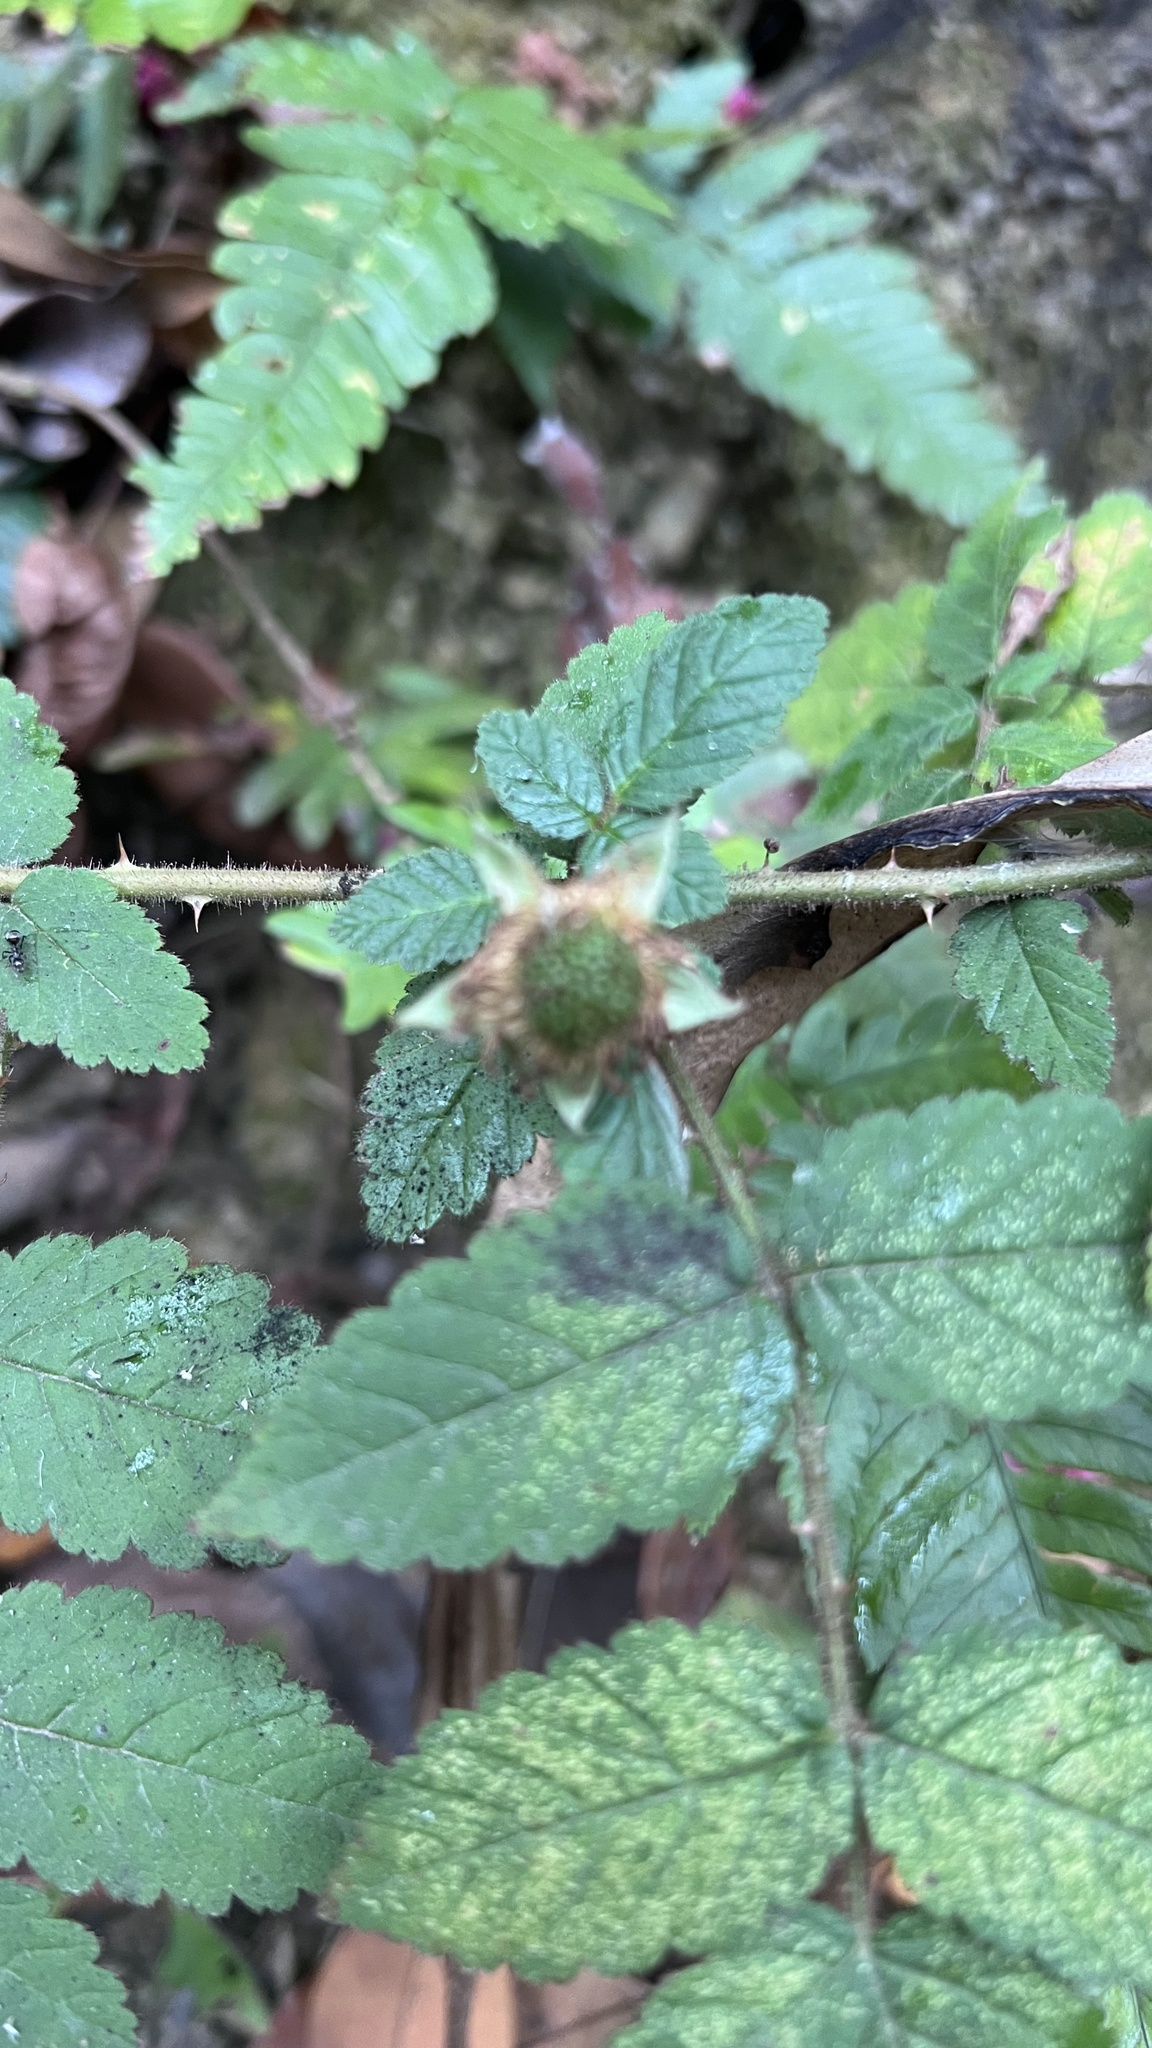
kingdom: Plantae
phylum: Tracheophyta
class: Magnoliopsida
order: Rosales
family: Rosaceae
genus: Rubus
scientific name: Rubus croceacanthus
